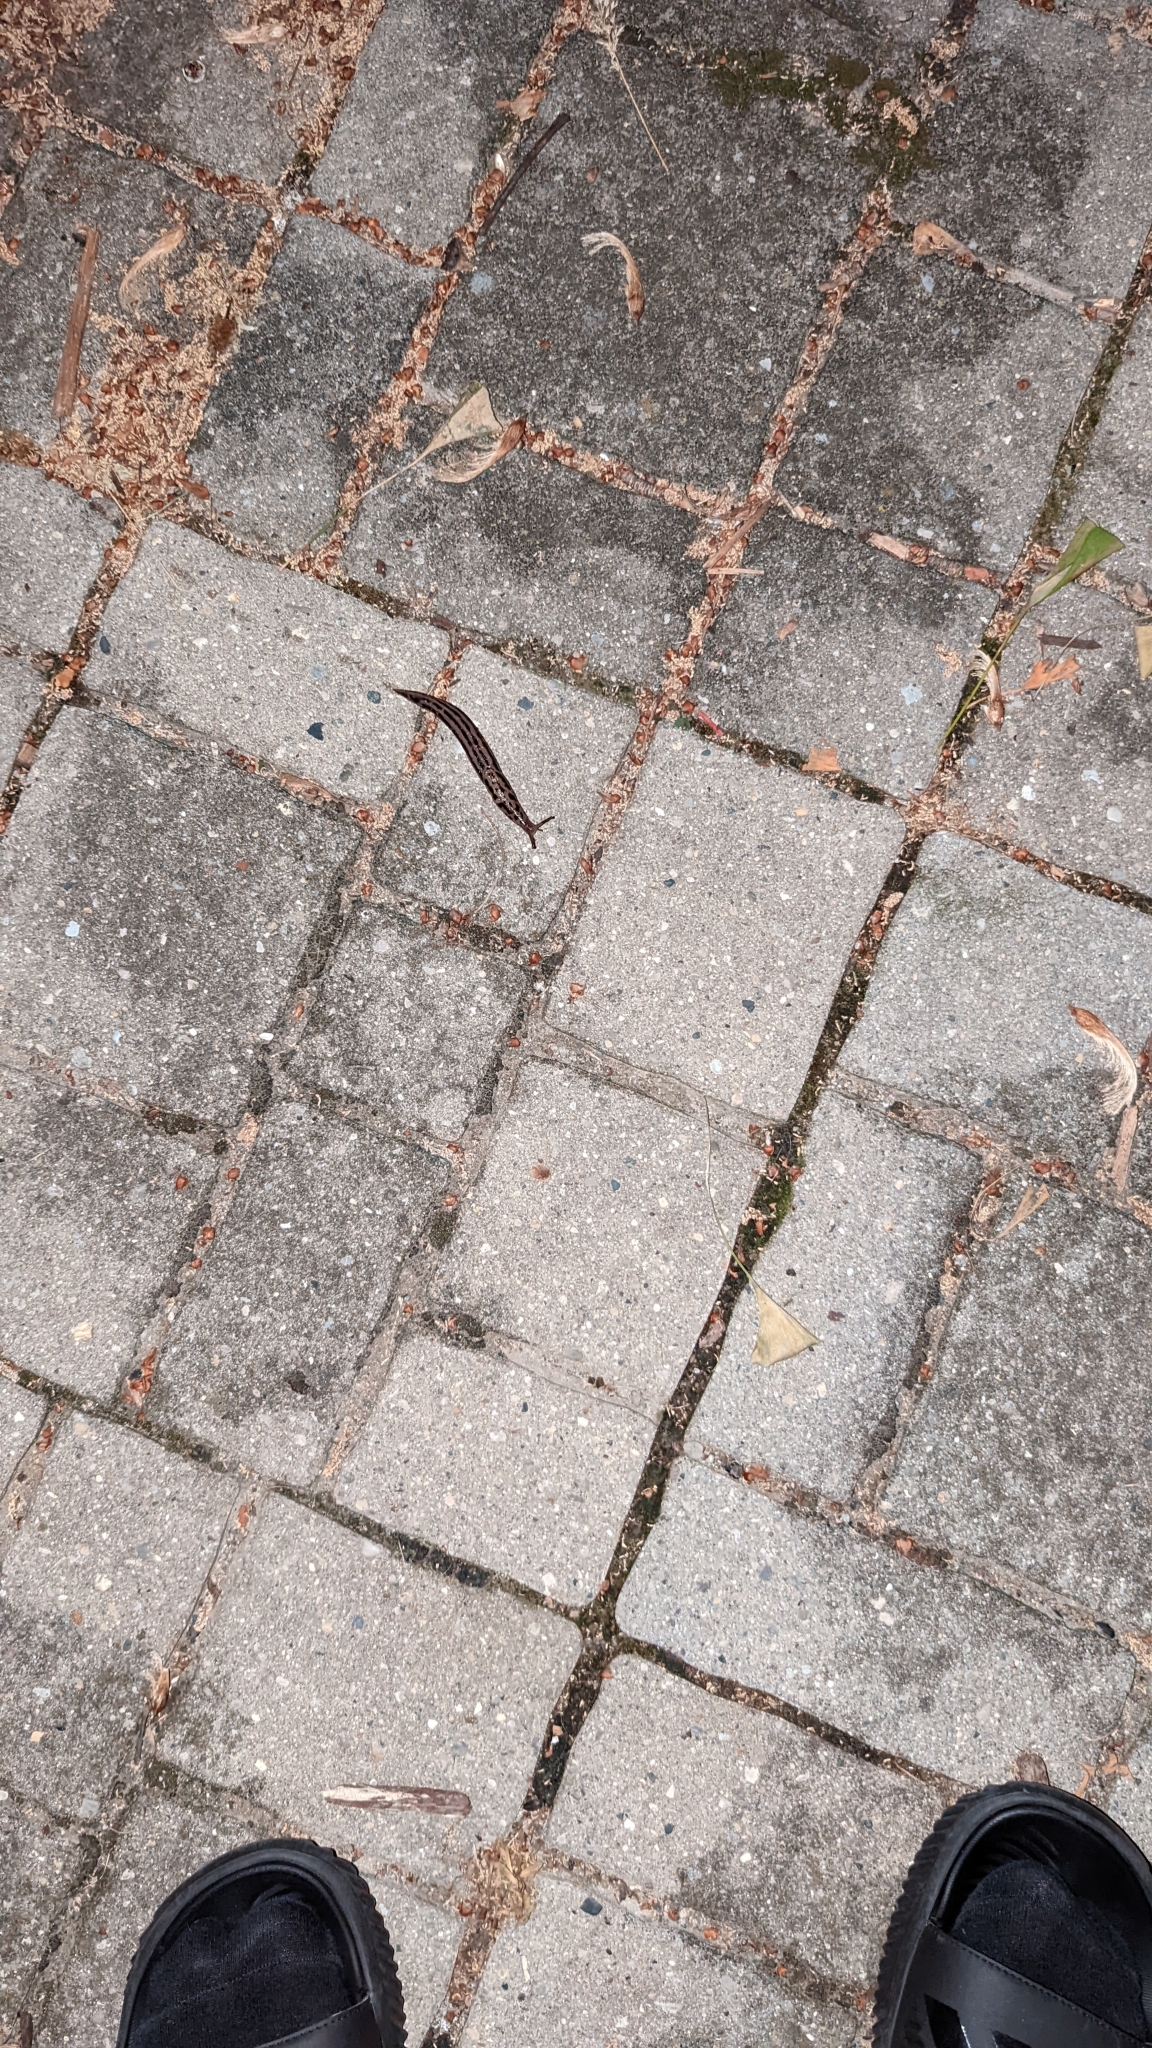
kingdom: Animalia
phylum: Mollusca
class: Gastropoda
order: Stylommatophora
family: Limacidae
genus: Limax
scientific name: Limax maximus
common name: Great grey slug
